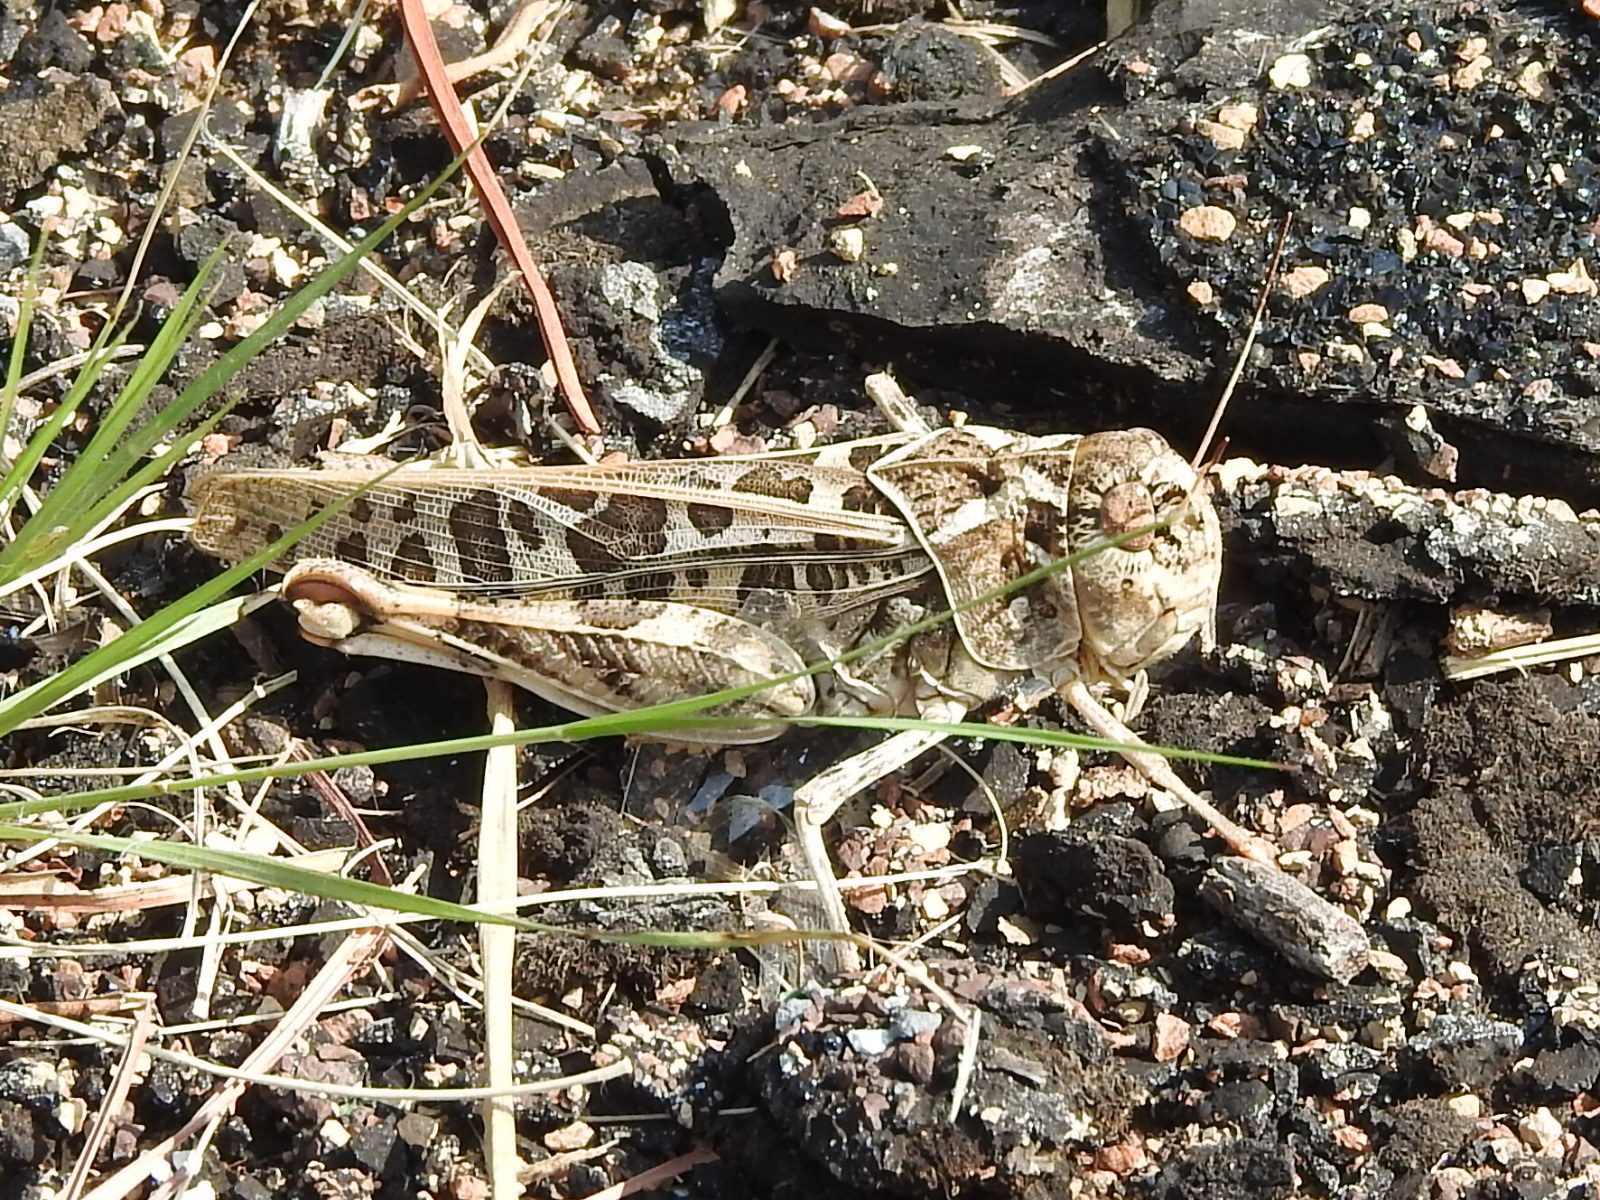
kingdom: Animalia
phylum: Arthropoda
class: Insecta
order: Orthoptera
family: Acrididae
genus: Hippiscus
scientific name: Hippiscus ocelote
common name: Wrinkled grasshopper
